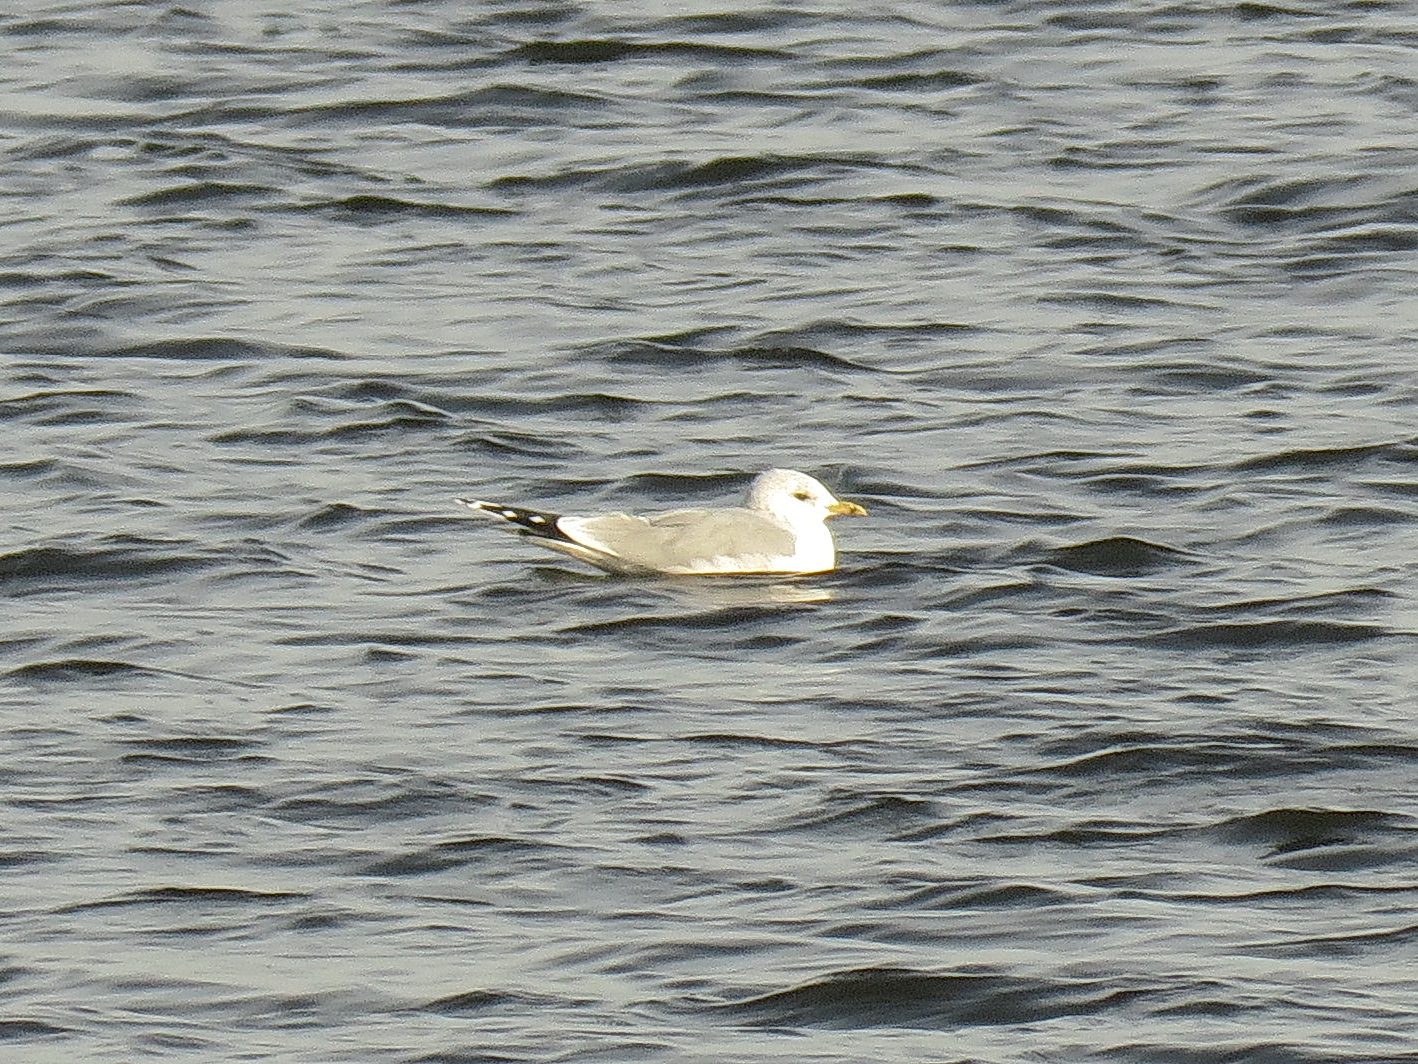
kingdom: Animalia
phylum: Chordata
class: Aves
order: Charadriiformes
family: Laridae
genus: Larus
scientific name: Larus canus
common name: Mew gull
